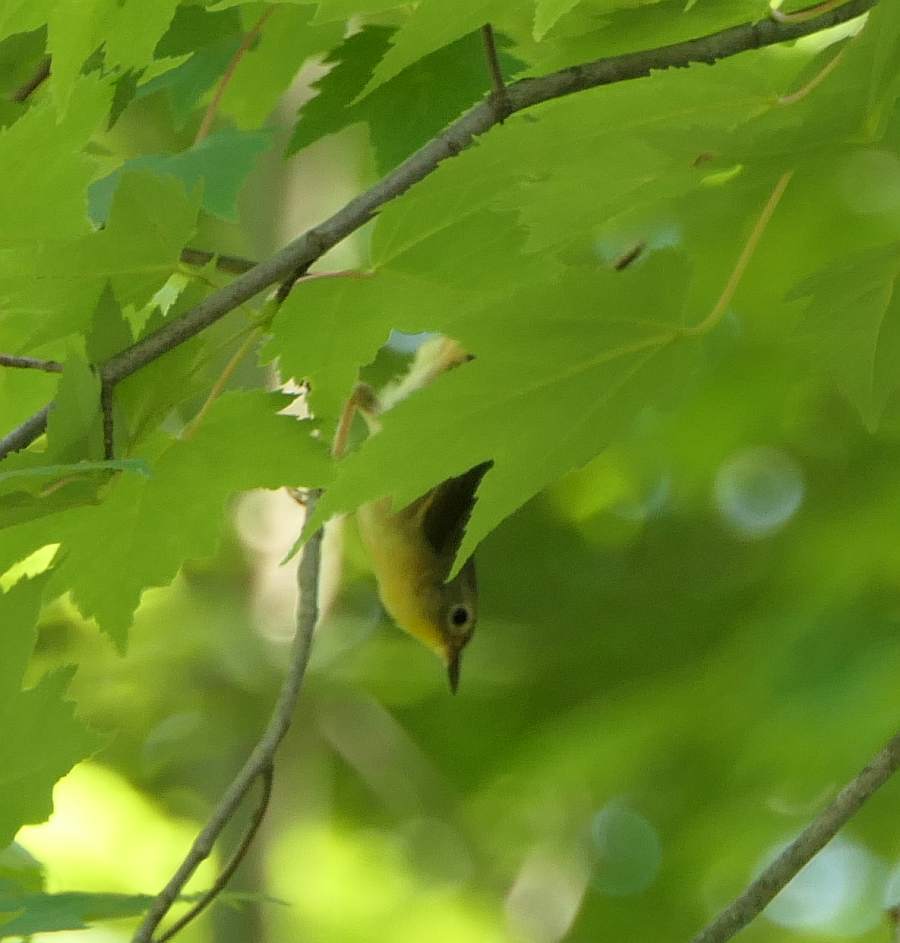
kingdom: Animalia
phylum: Chordata
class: Aves
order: Passeriformes
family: Parulidae
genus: Leiothlypis
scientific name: Leiothlypis ruficapilla
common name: Nashville warbler
